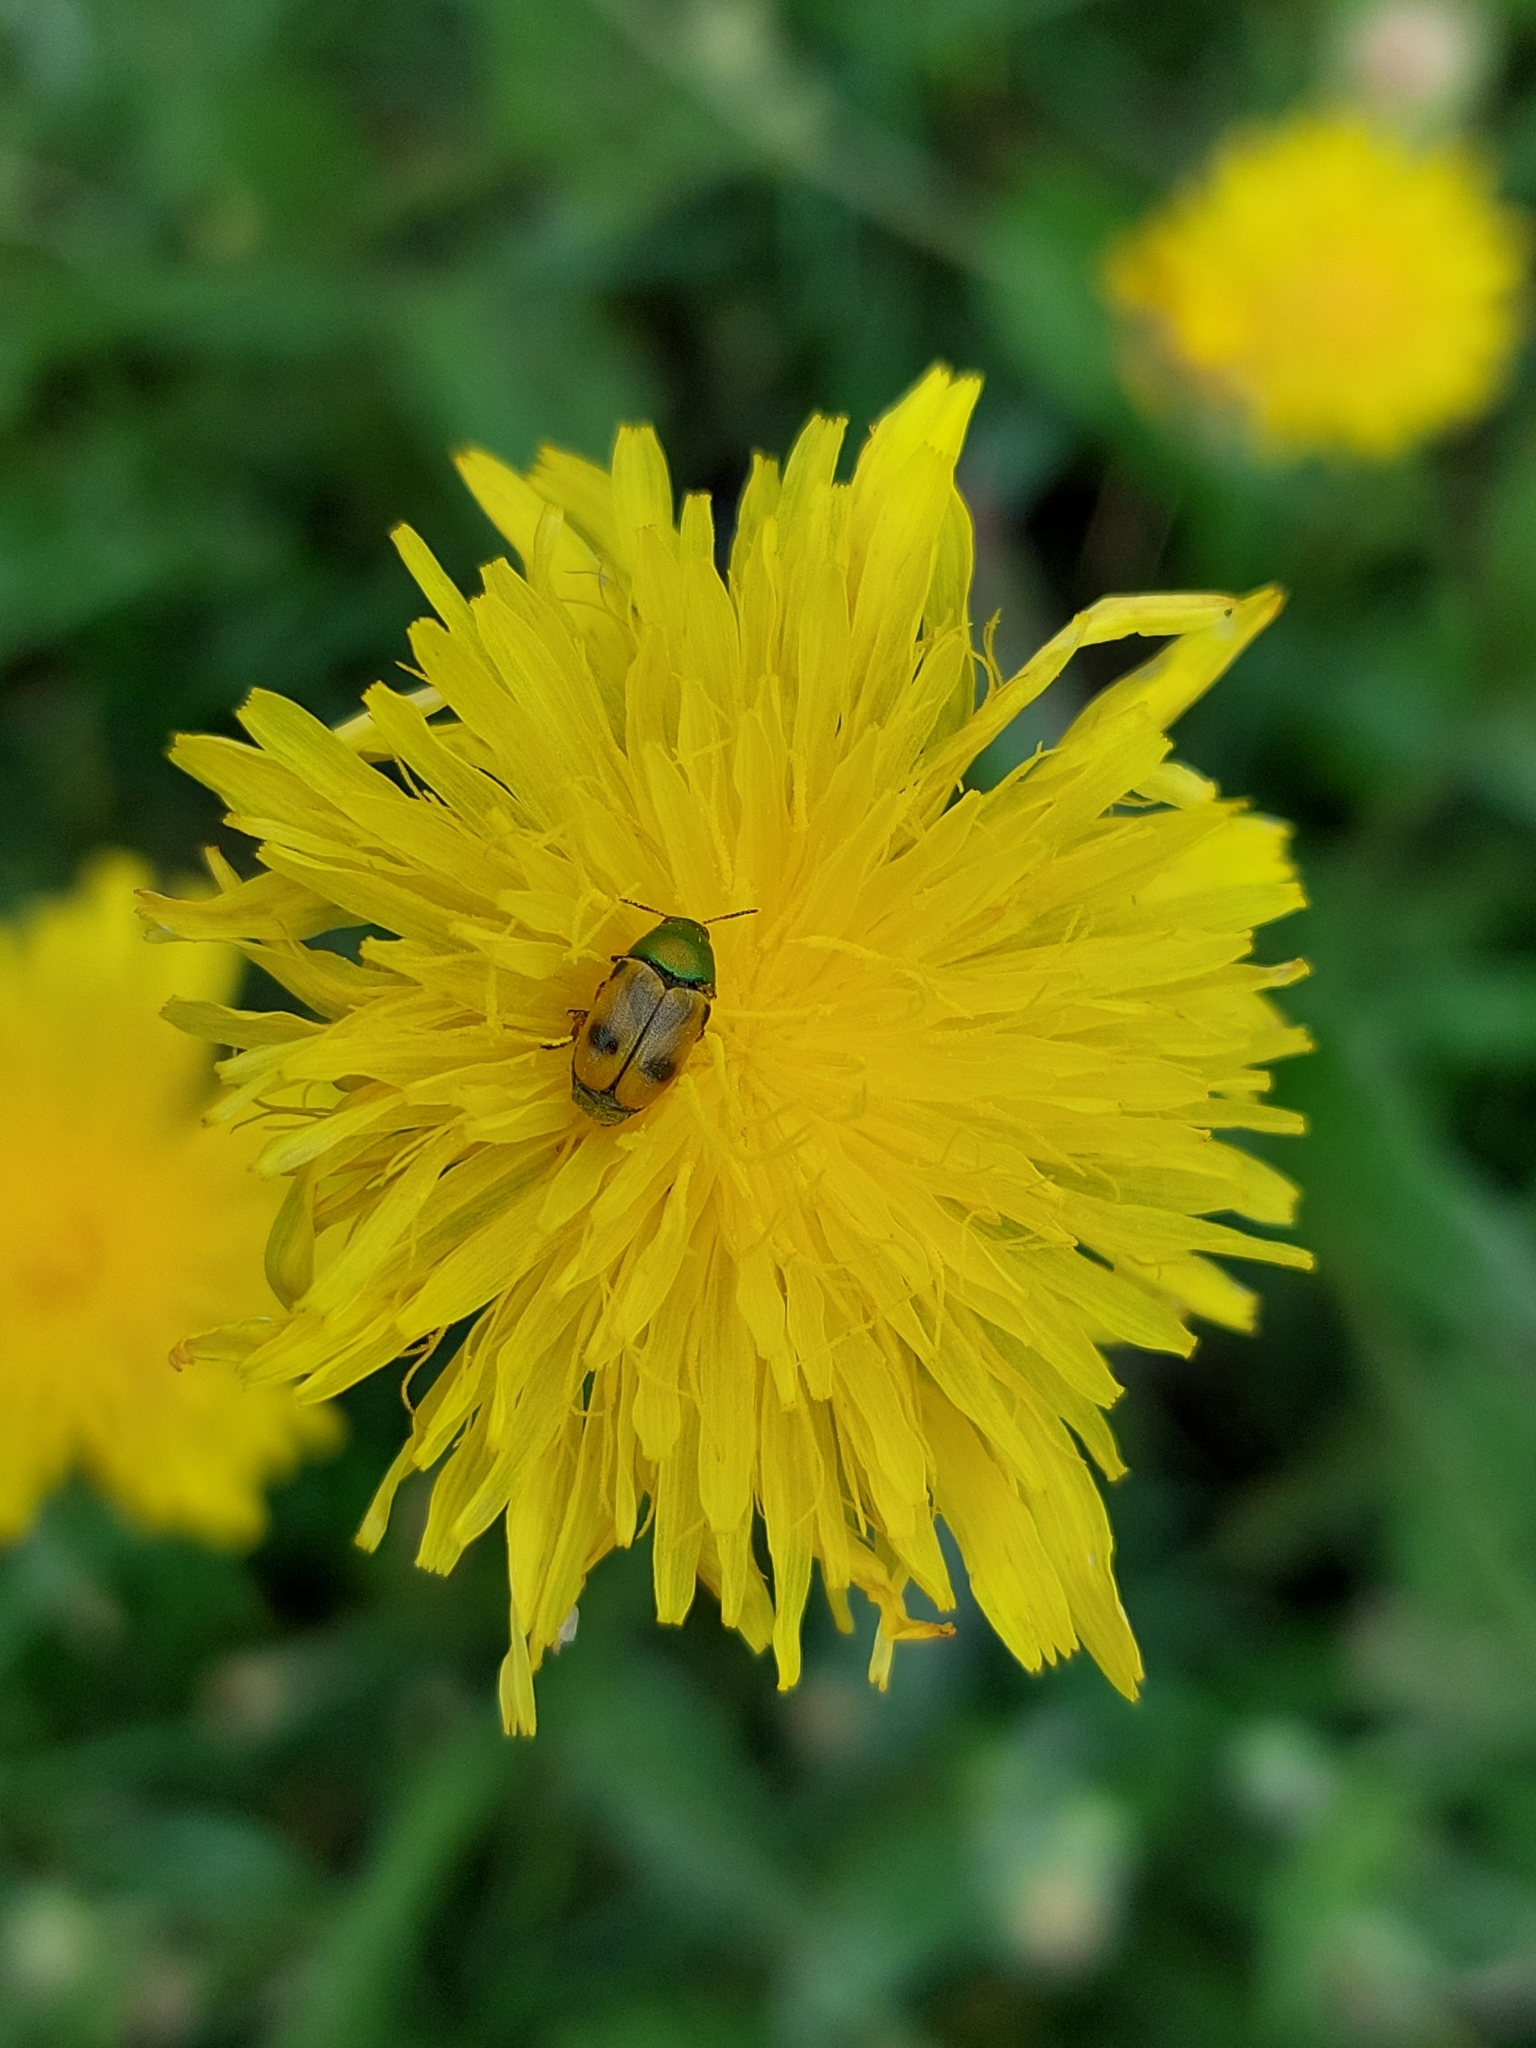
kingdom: Animalia
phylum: Arthropoda
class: Insecta
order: Coleoptera
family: Chrysomelidae
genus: Cryptocephalus
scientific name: Cryptocephalus laetus
